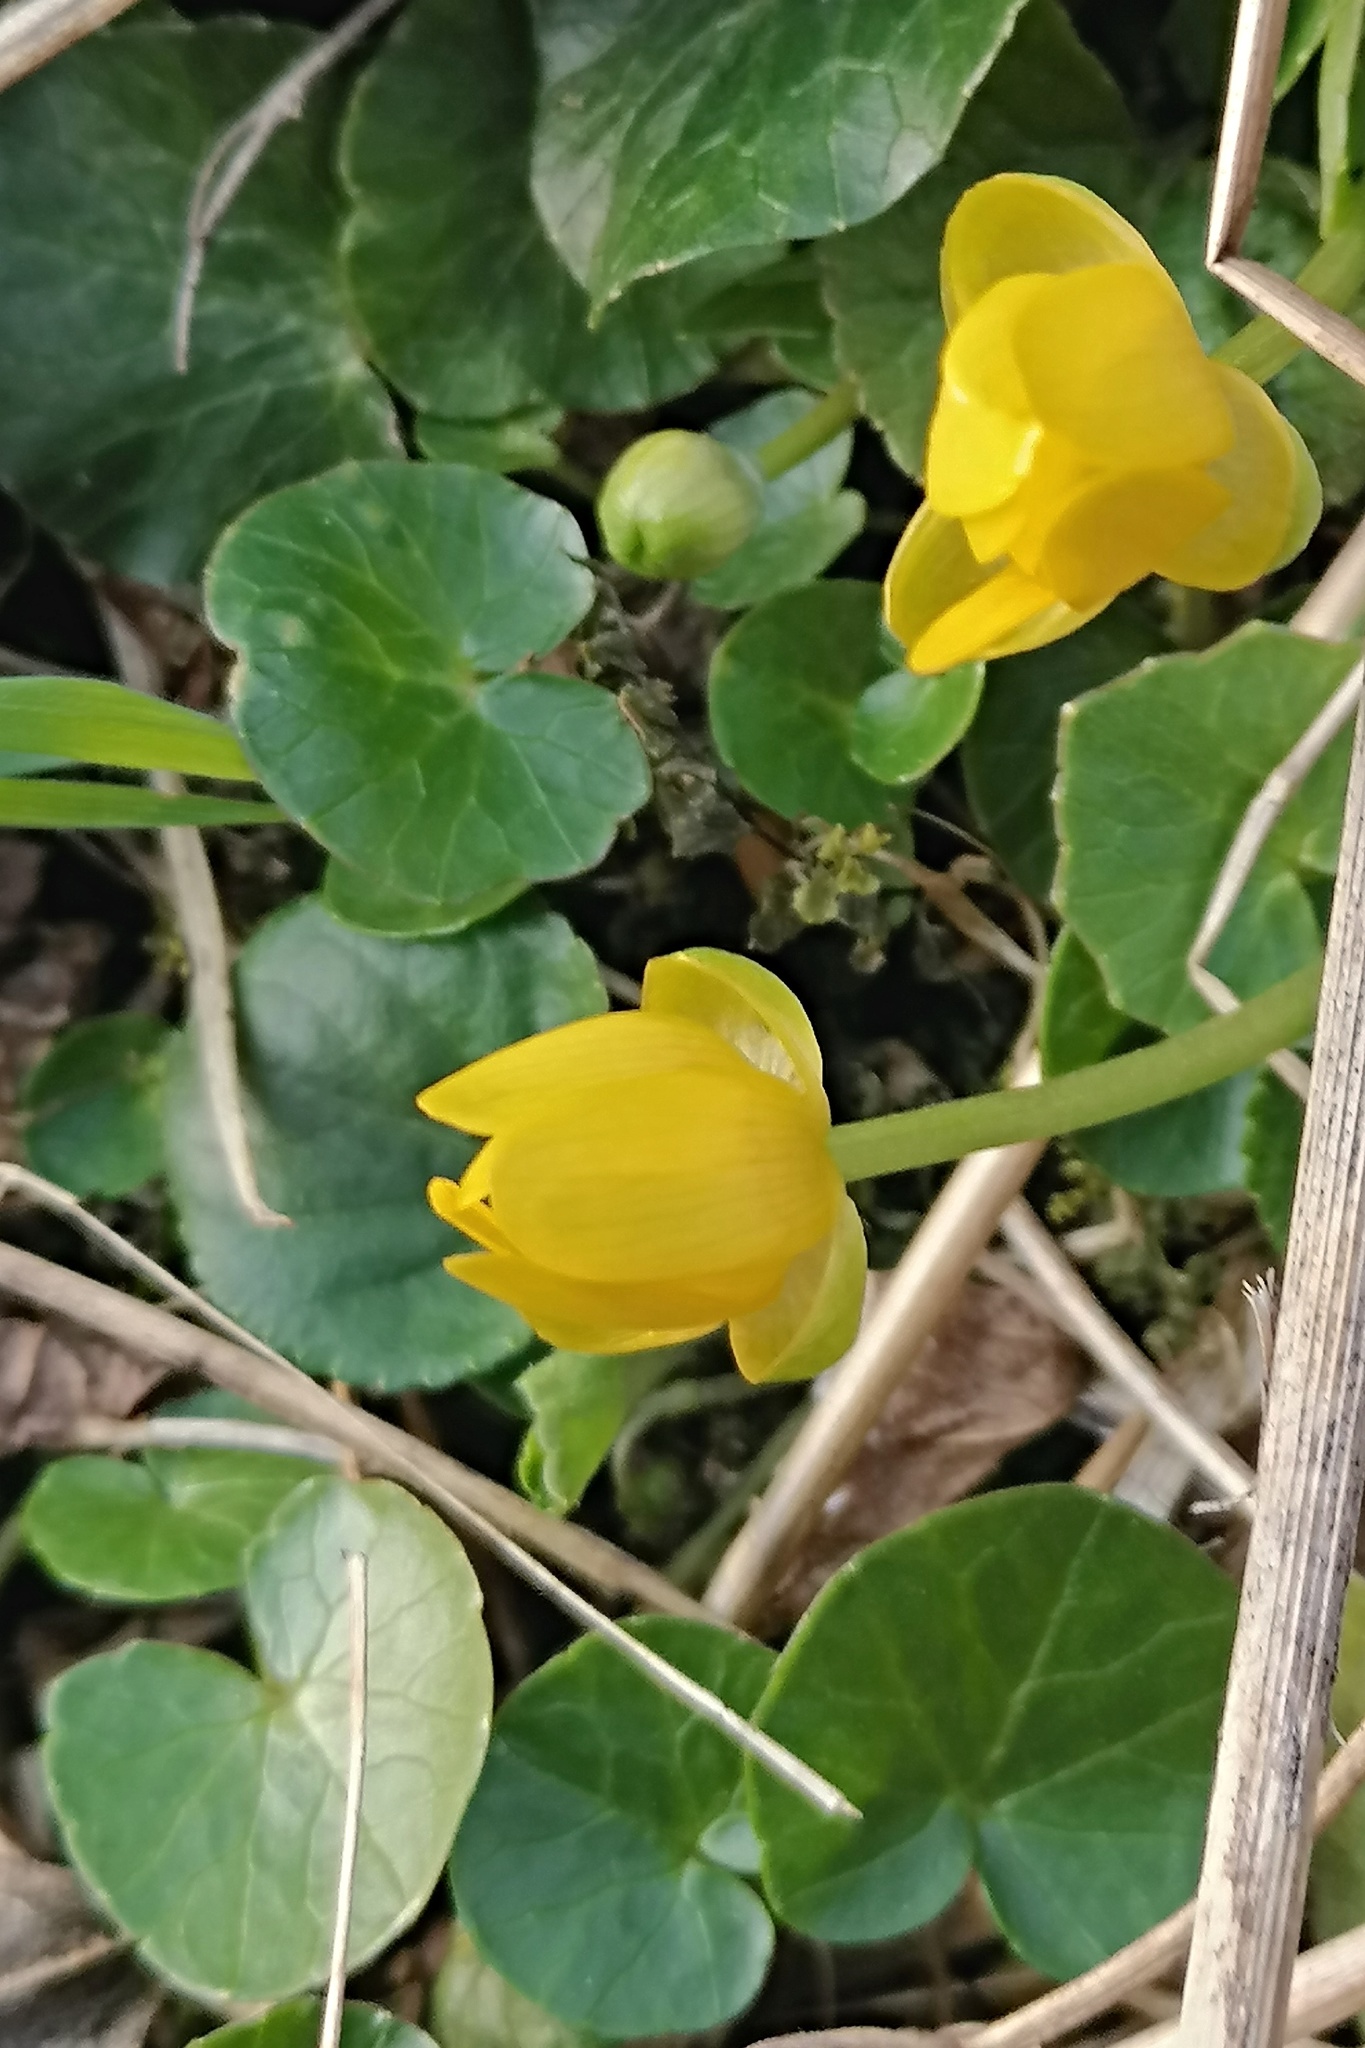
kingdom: Plantae
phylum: Tracheophyta
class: Magnoliopsida
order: Ranunculales
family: Ranunculaceae
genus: Ficaria
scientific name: Ficaria verna
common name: Lesser celandine
